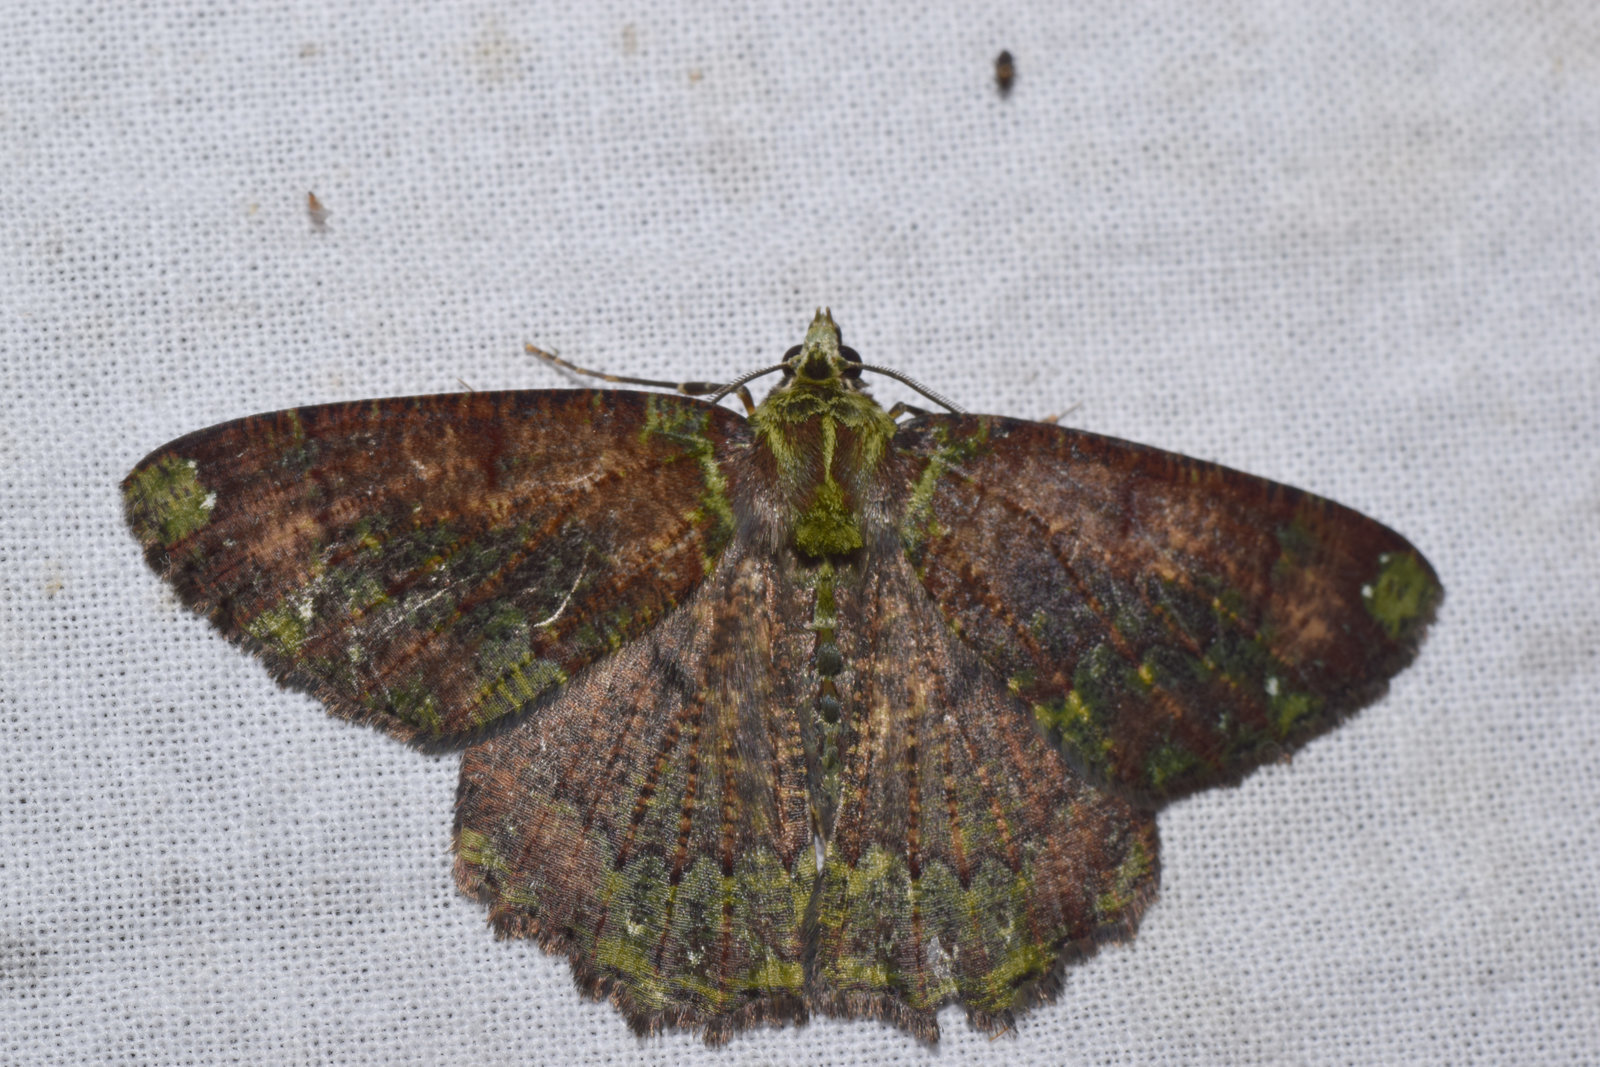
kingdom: Animalia
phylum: Arthropoda
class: Insecta
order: Lepidoptera
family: Geometridae
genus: Dindicodes
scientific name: Dindicodes apicalis
